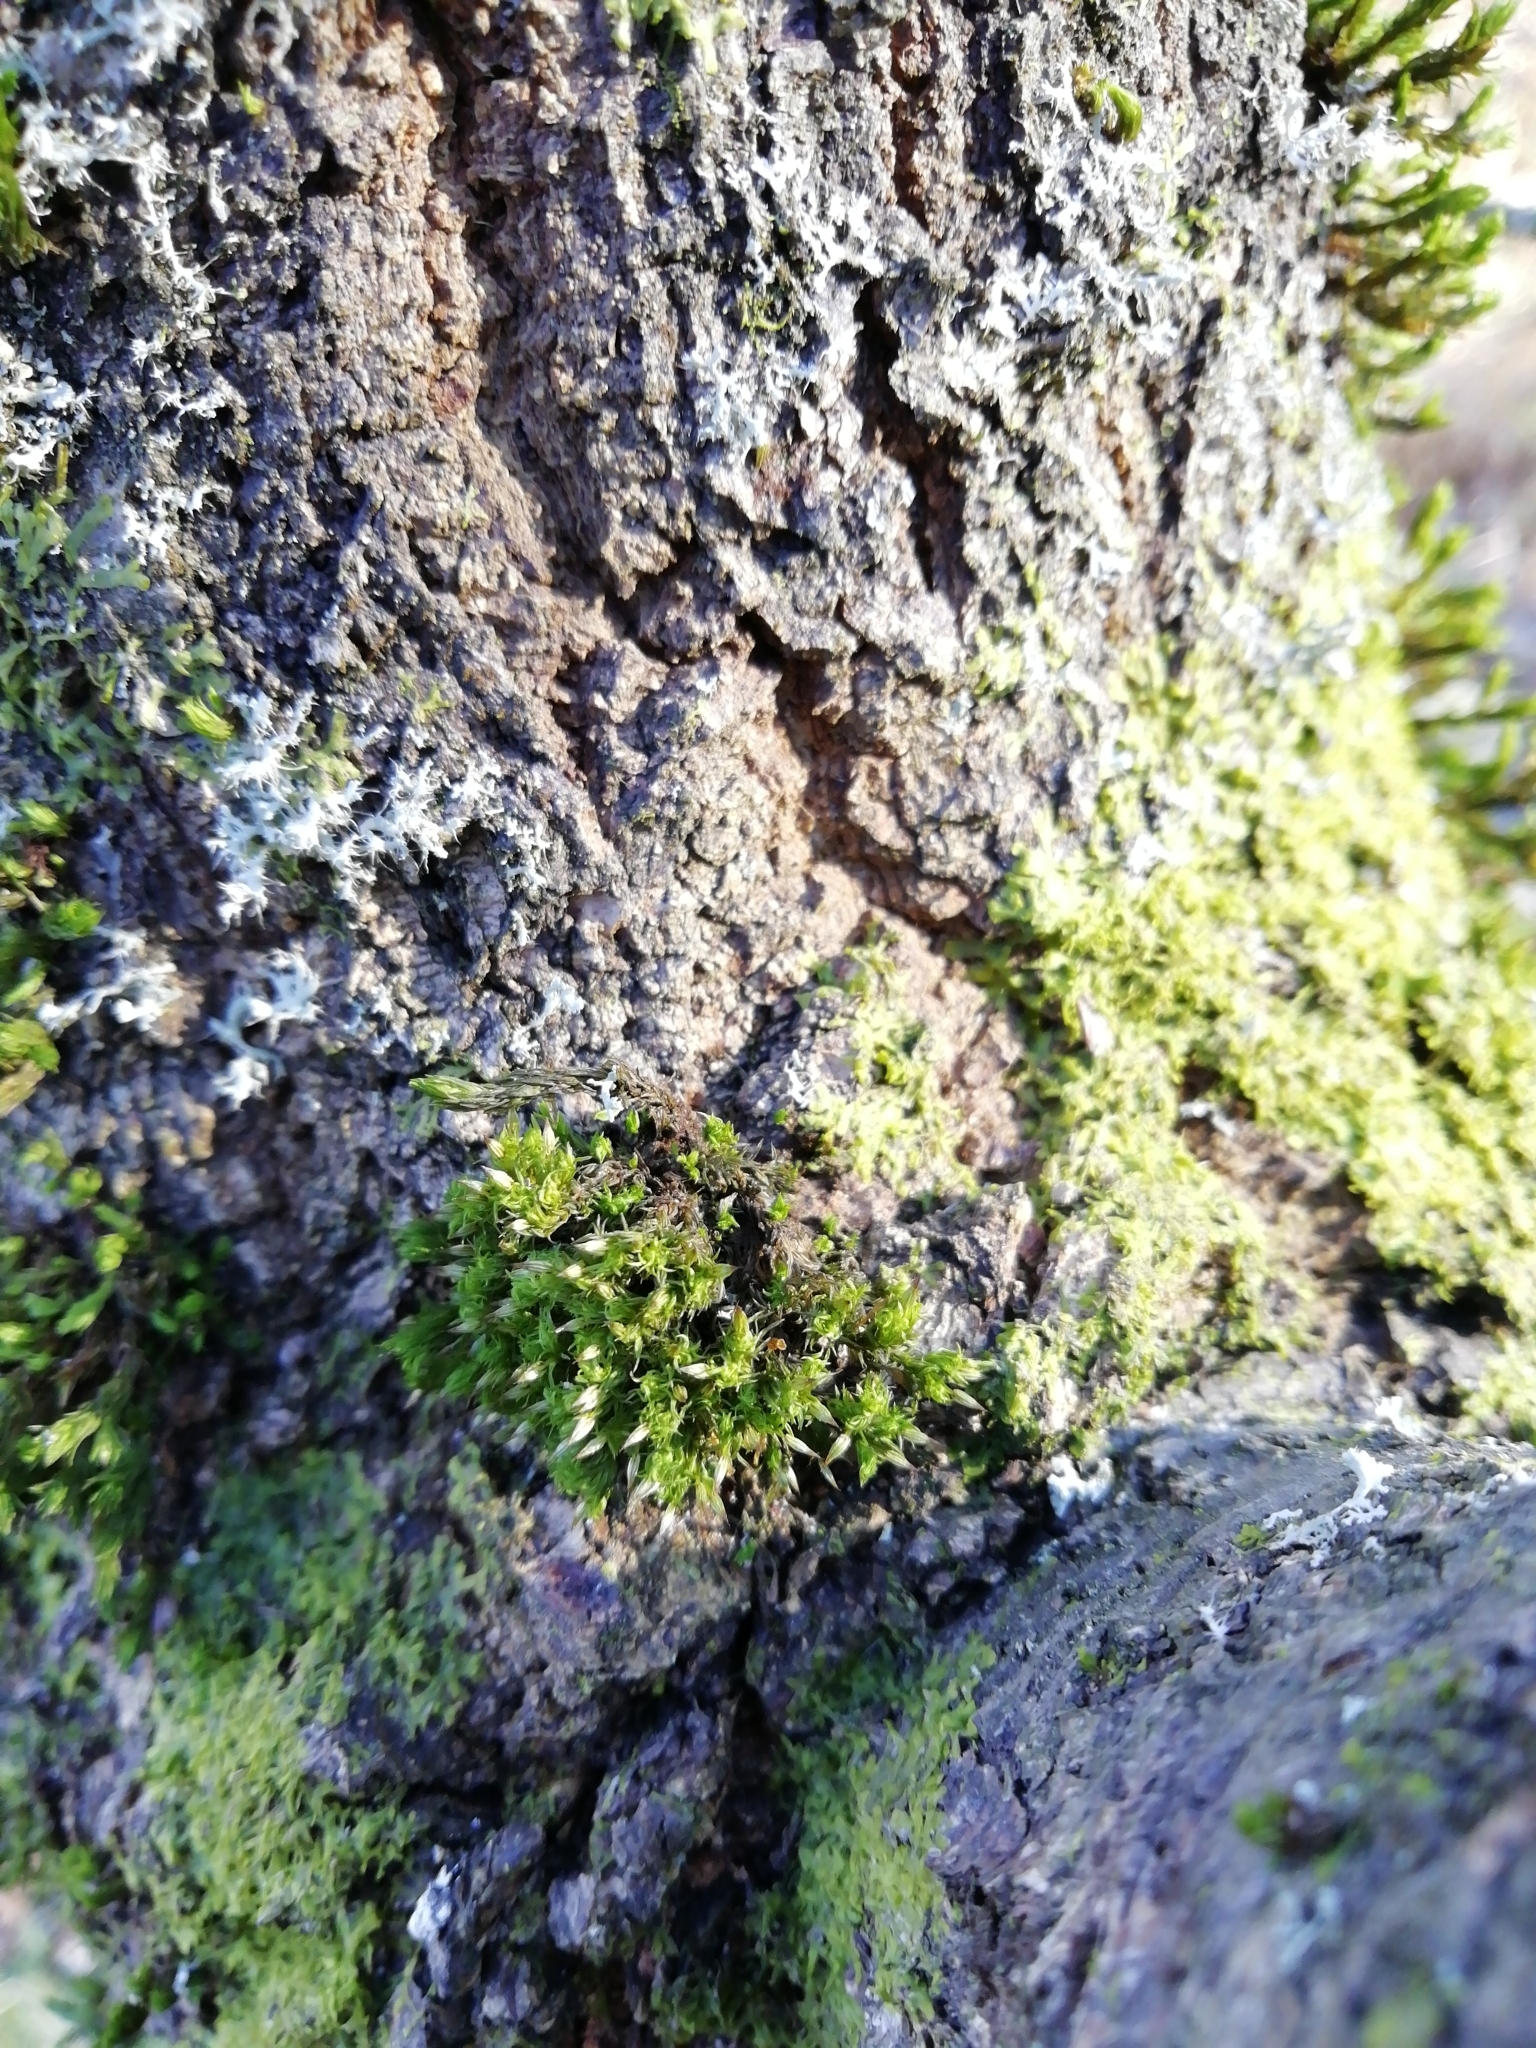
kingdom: Plantae
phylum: Bryophyta
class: Bryopsida
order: Orthotrichales
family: Orthotrichaceae
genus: Orthotrichum
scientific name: Orthotrichum tenellum
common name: Slender bristle-moss
